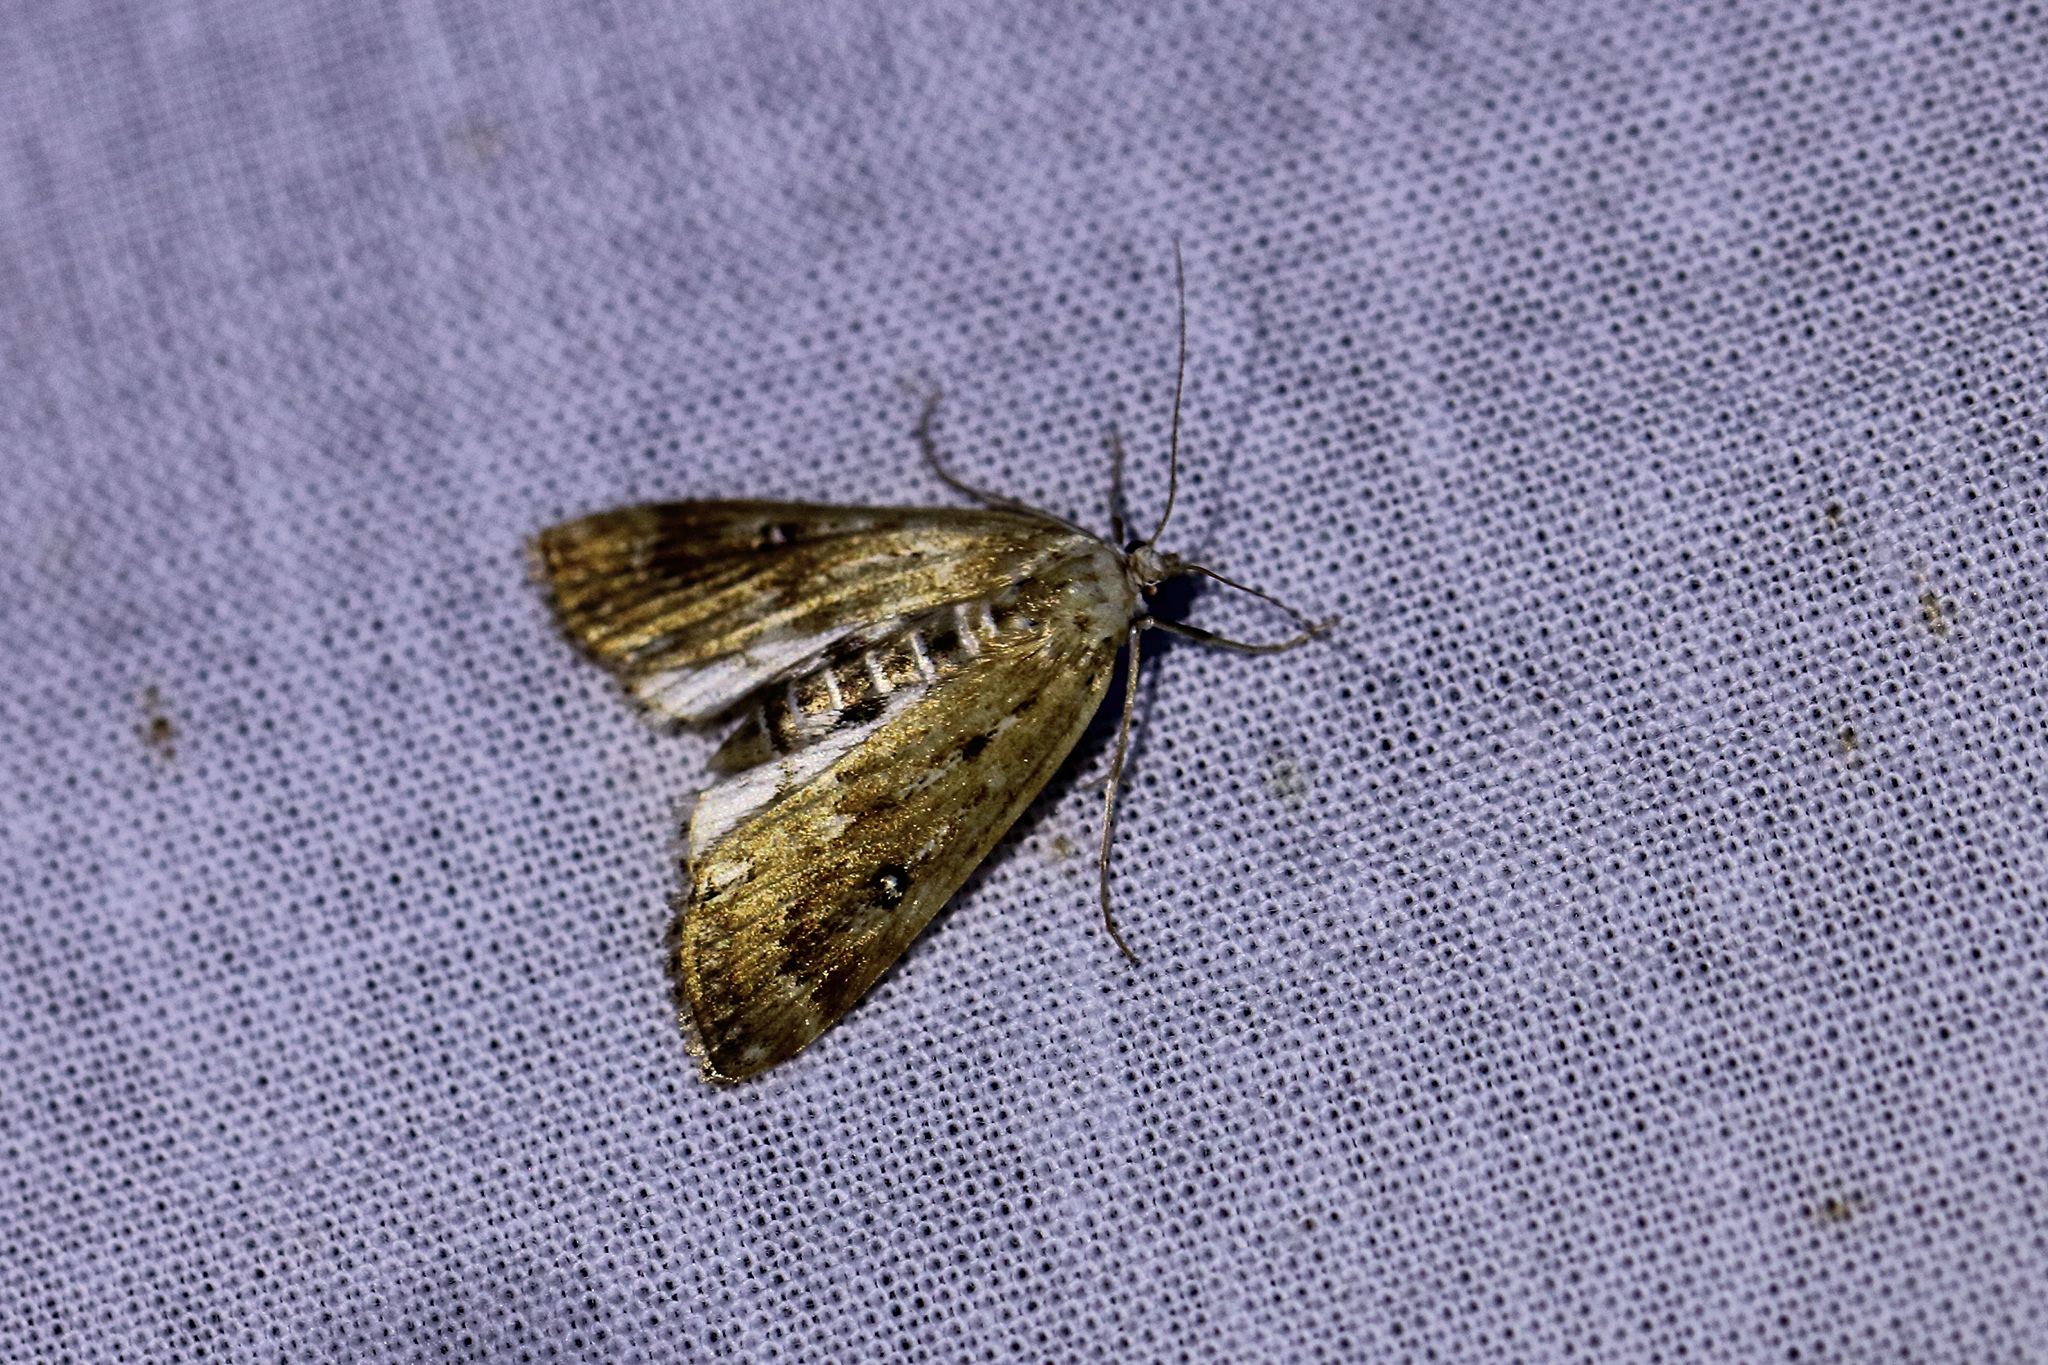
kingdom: Animalia
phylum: Arthropoda
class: Insecta
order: Lepidoptera
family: Crambidae
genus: Parapoynx
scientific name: Parapoynx stratiotata
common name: Ringed china-mark
